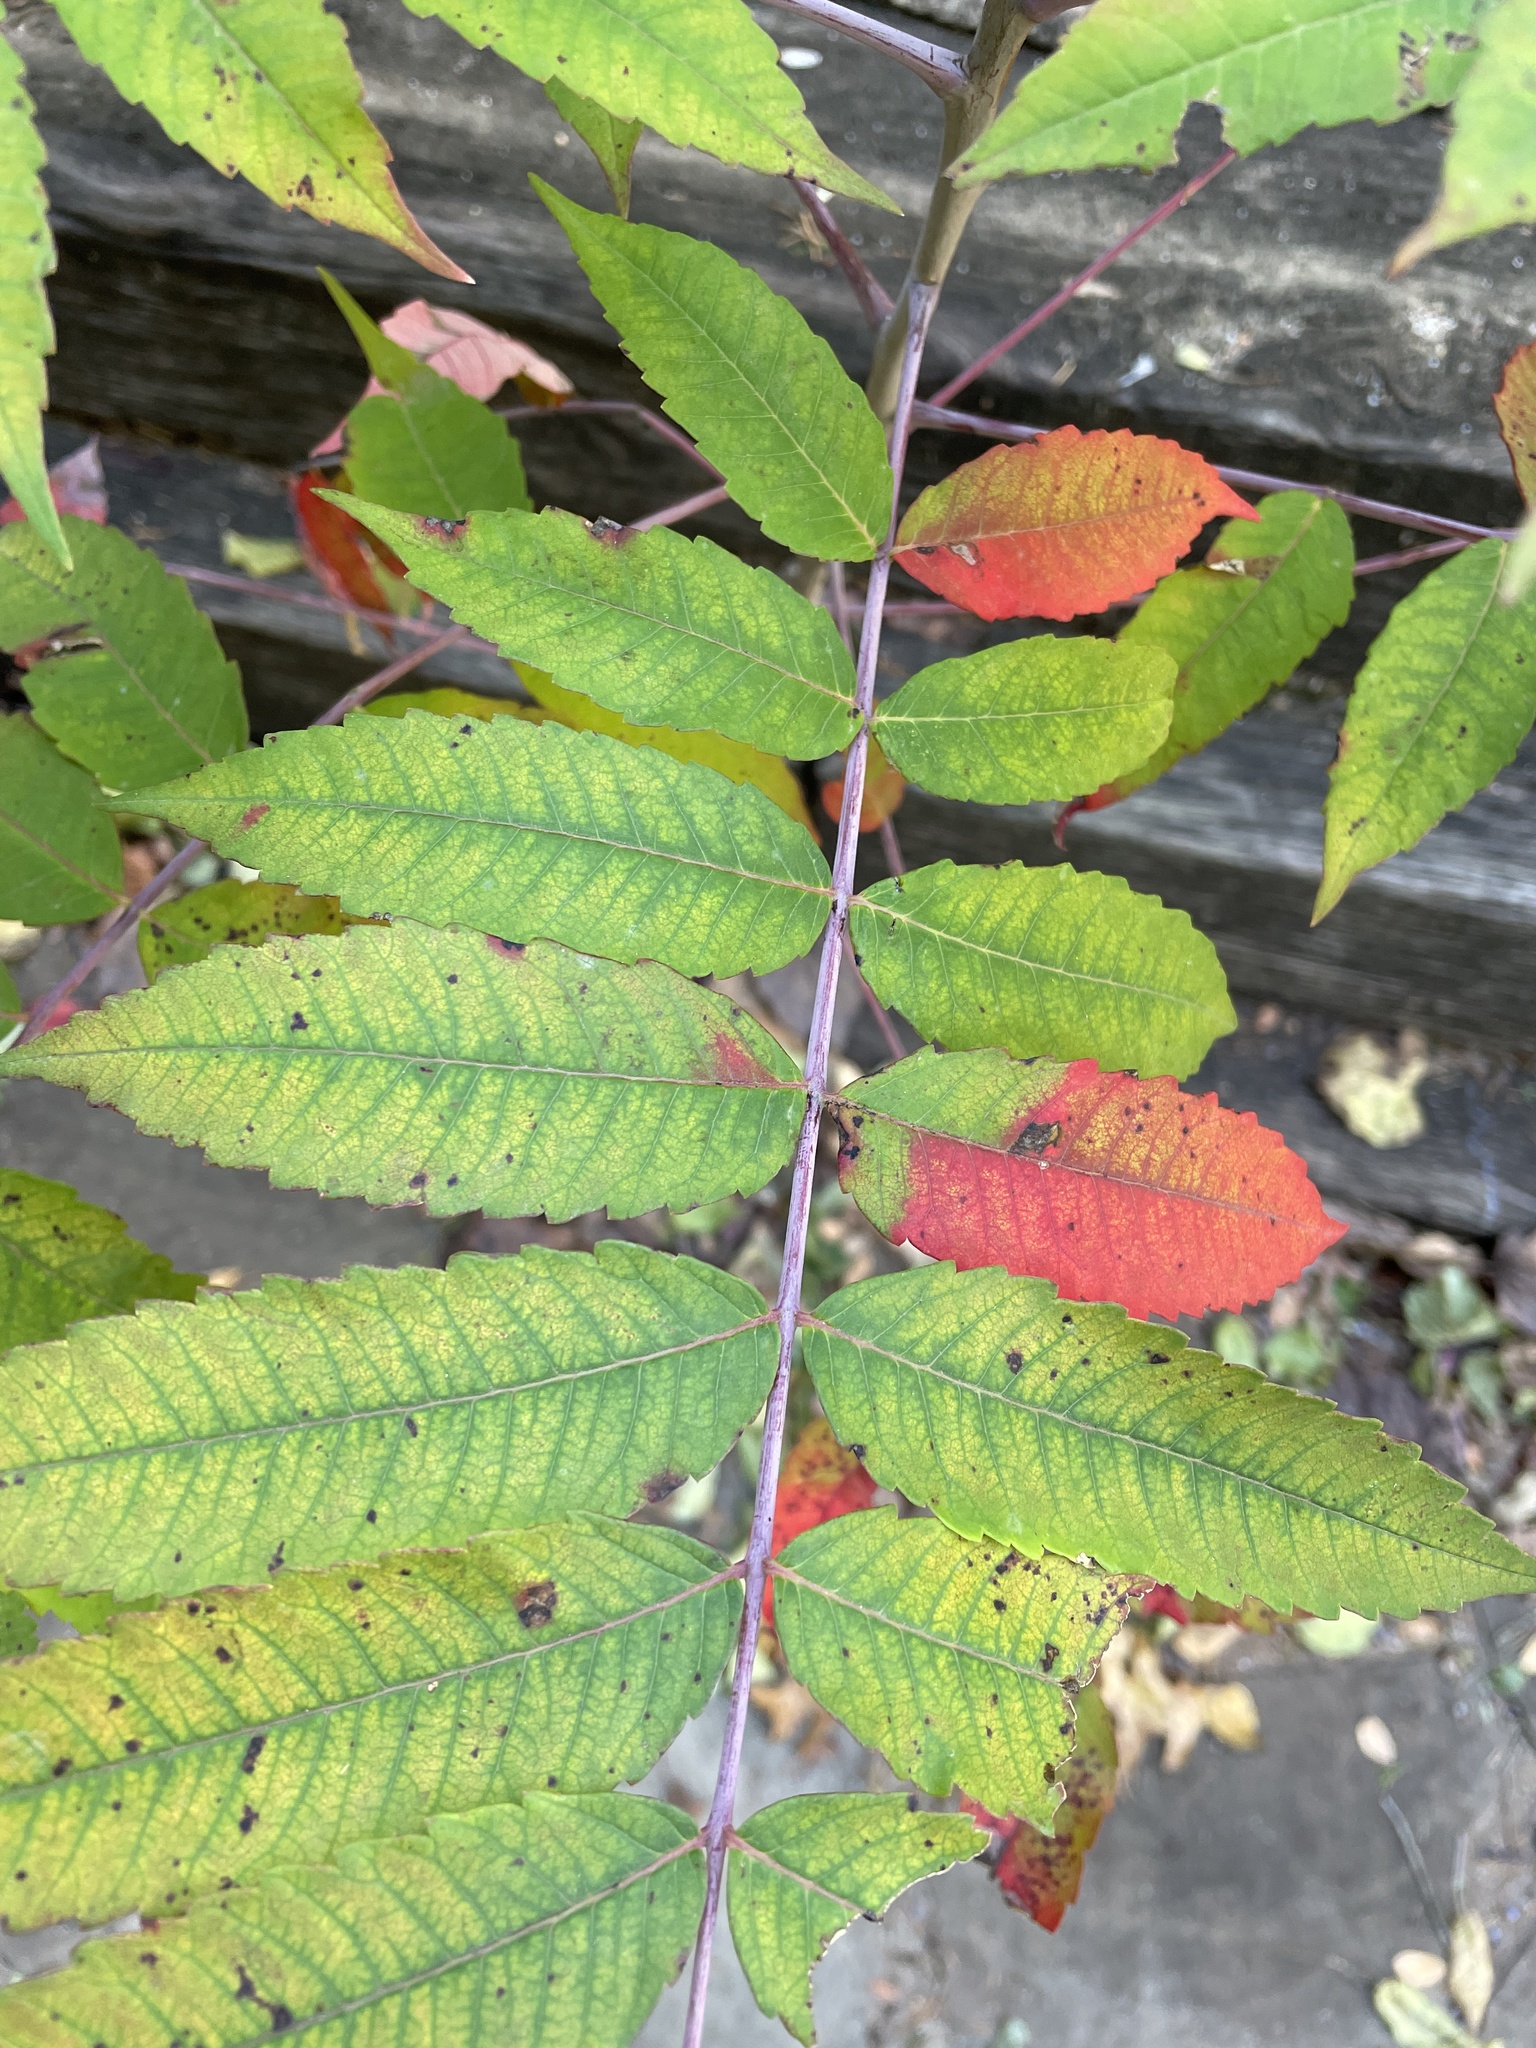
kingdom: Plantae
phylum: Tracheophyta
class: Magnoliopsida
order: Sapindales
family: Anacardiaceae
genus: Rhus
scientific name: Rhus glabra
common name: Scarlet sumac
